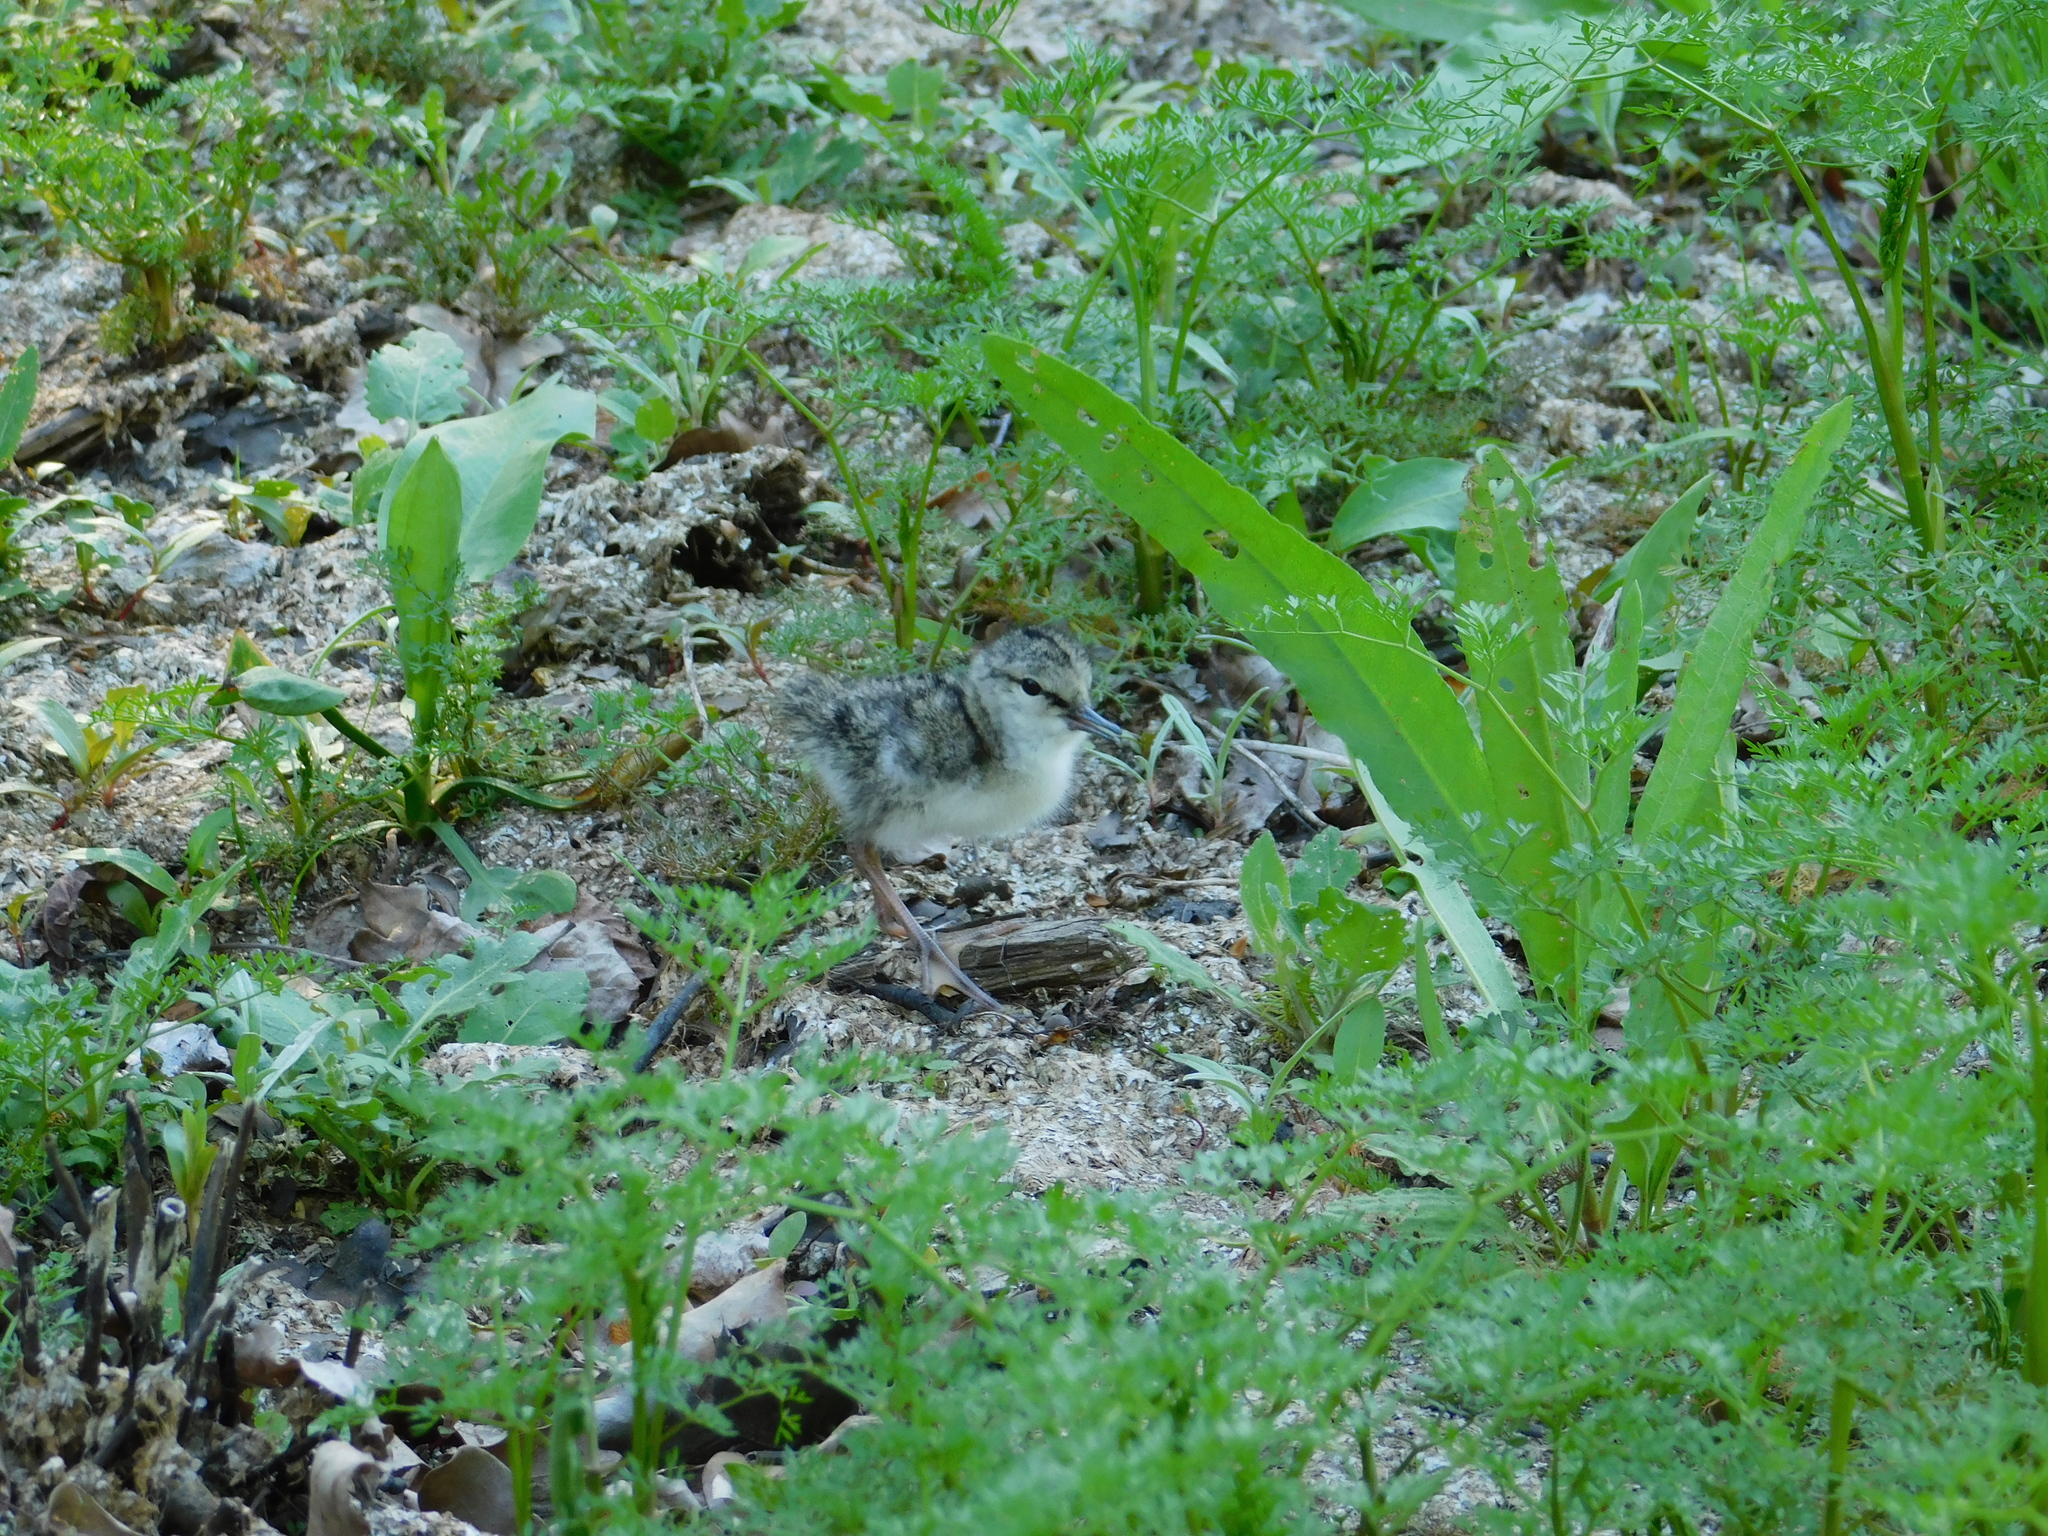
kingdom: Animalia
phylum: Chordata
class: Aves
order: Charadriiformes
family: Scolopacidae
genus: Xenus
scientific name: Xenus cinereus
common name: Terek sandpiper
